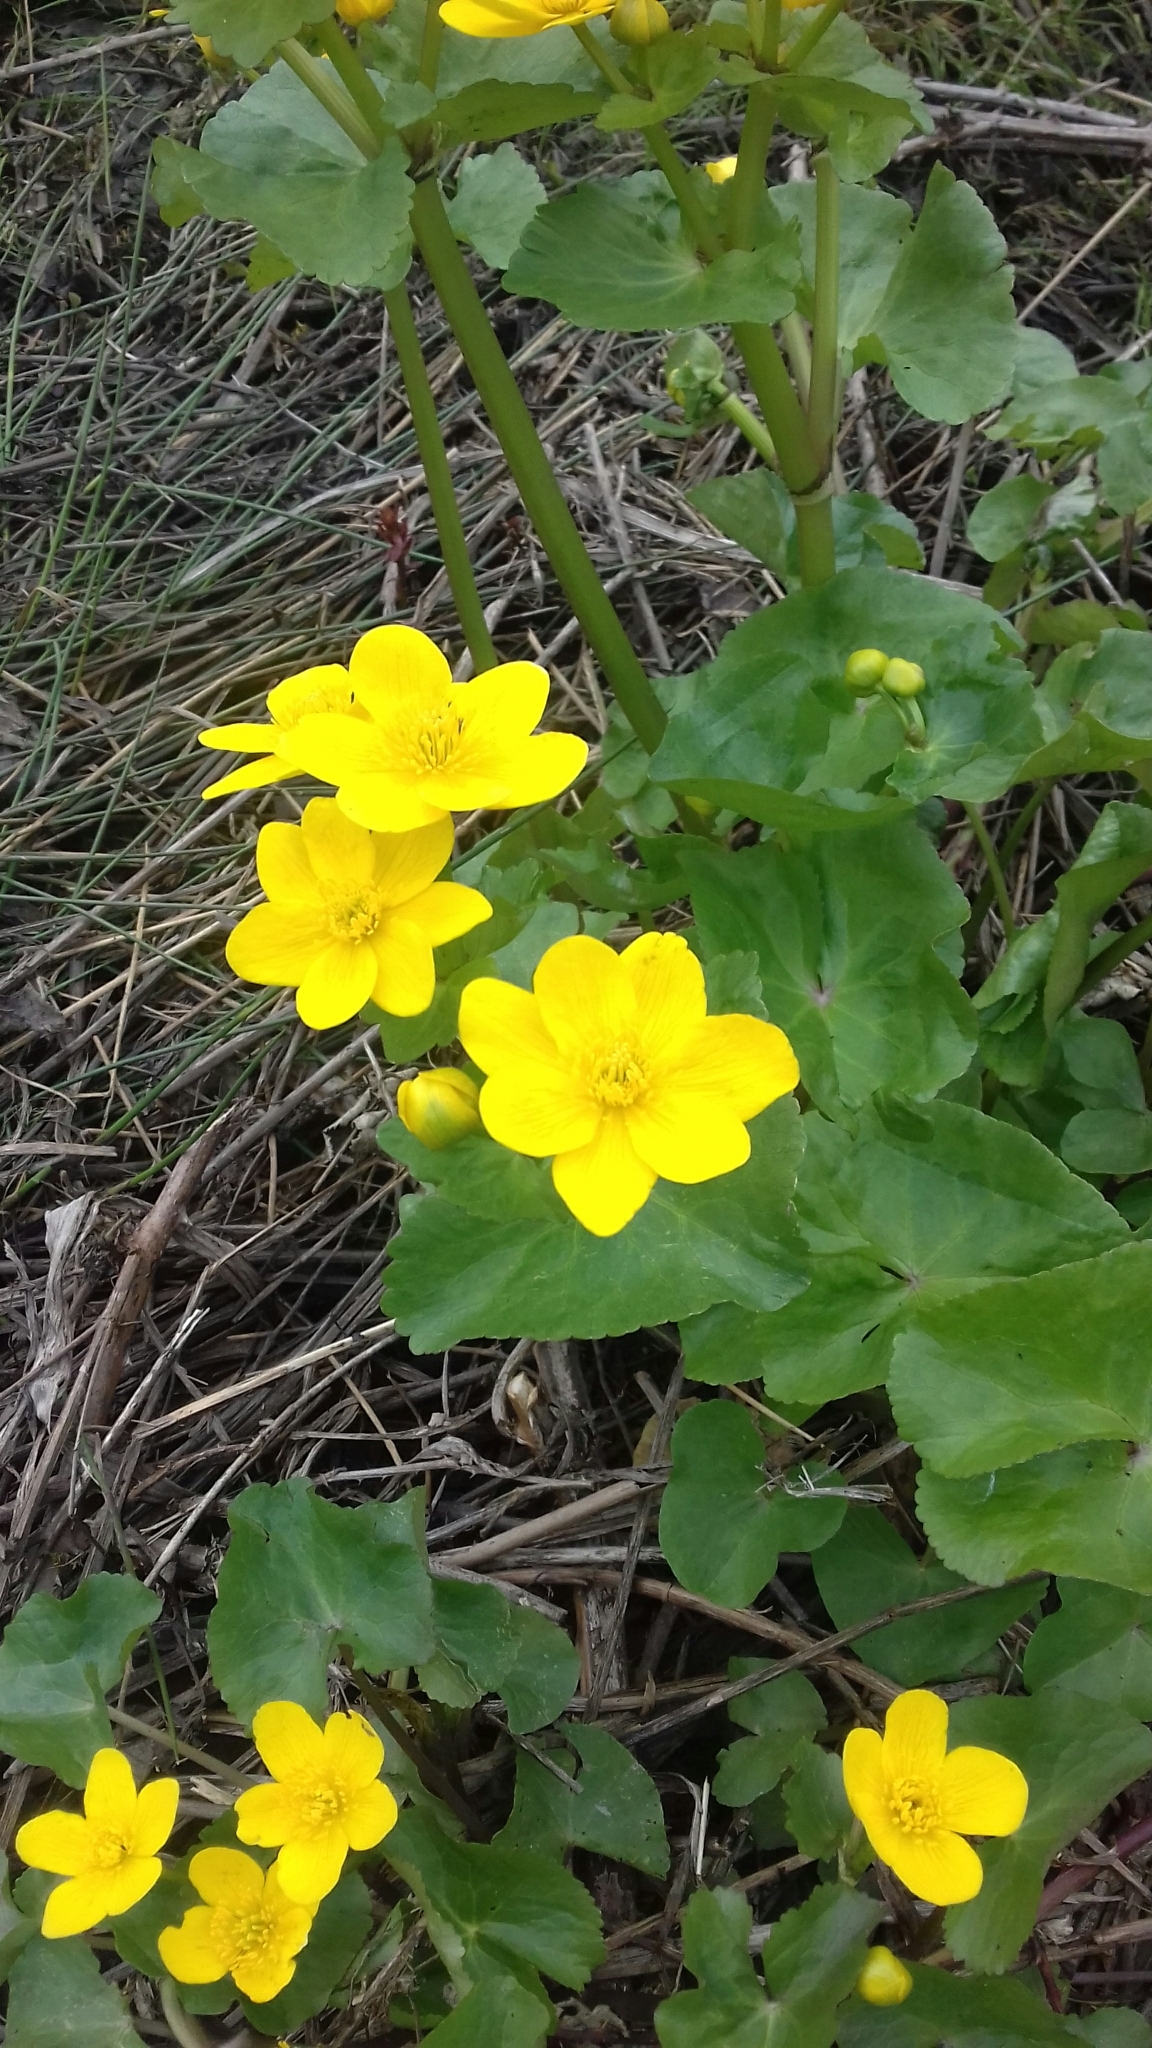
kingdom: Plantae
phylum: Tracheophyta
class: Magnoliopsida
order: Ranunculales
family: Ranunculaceae
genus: Caltha
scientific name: Caltha palustris
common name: Marsh marigold
